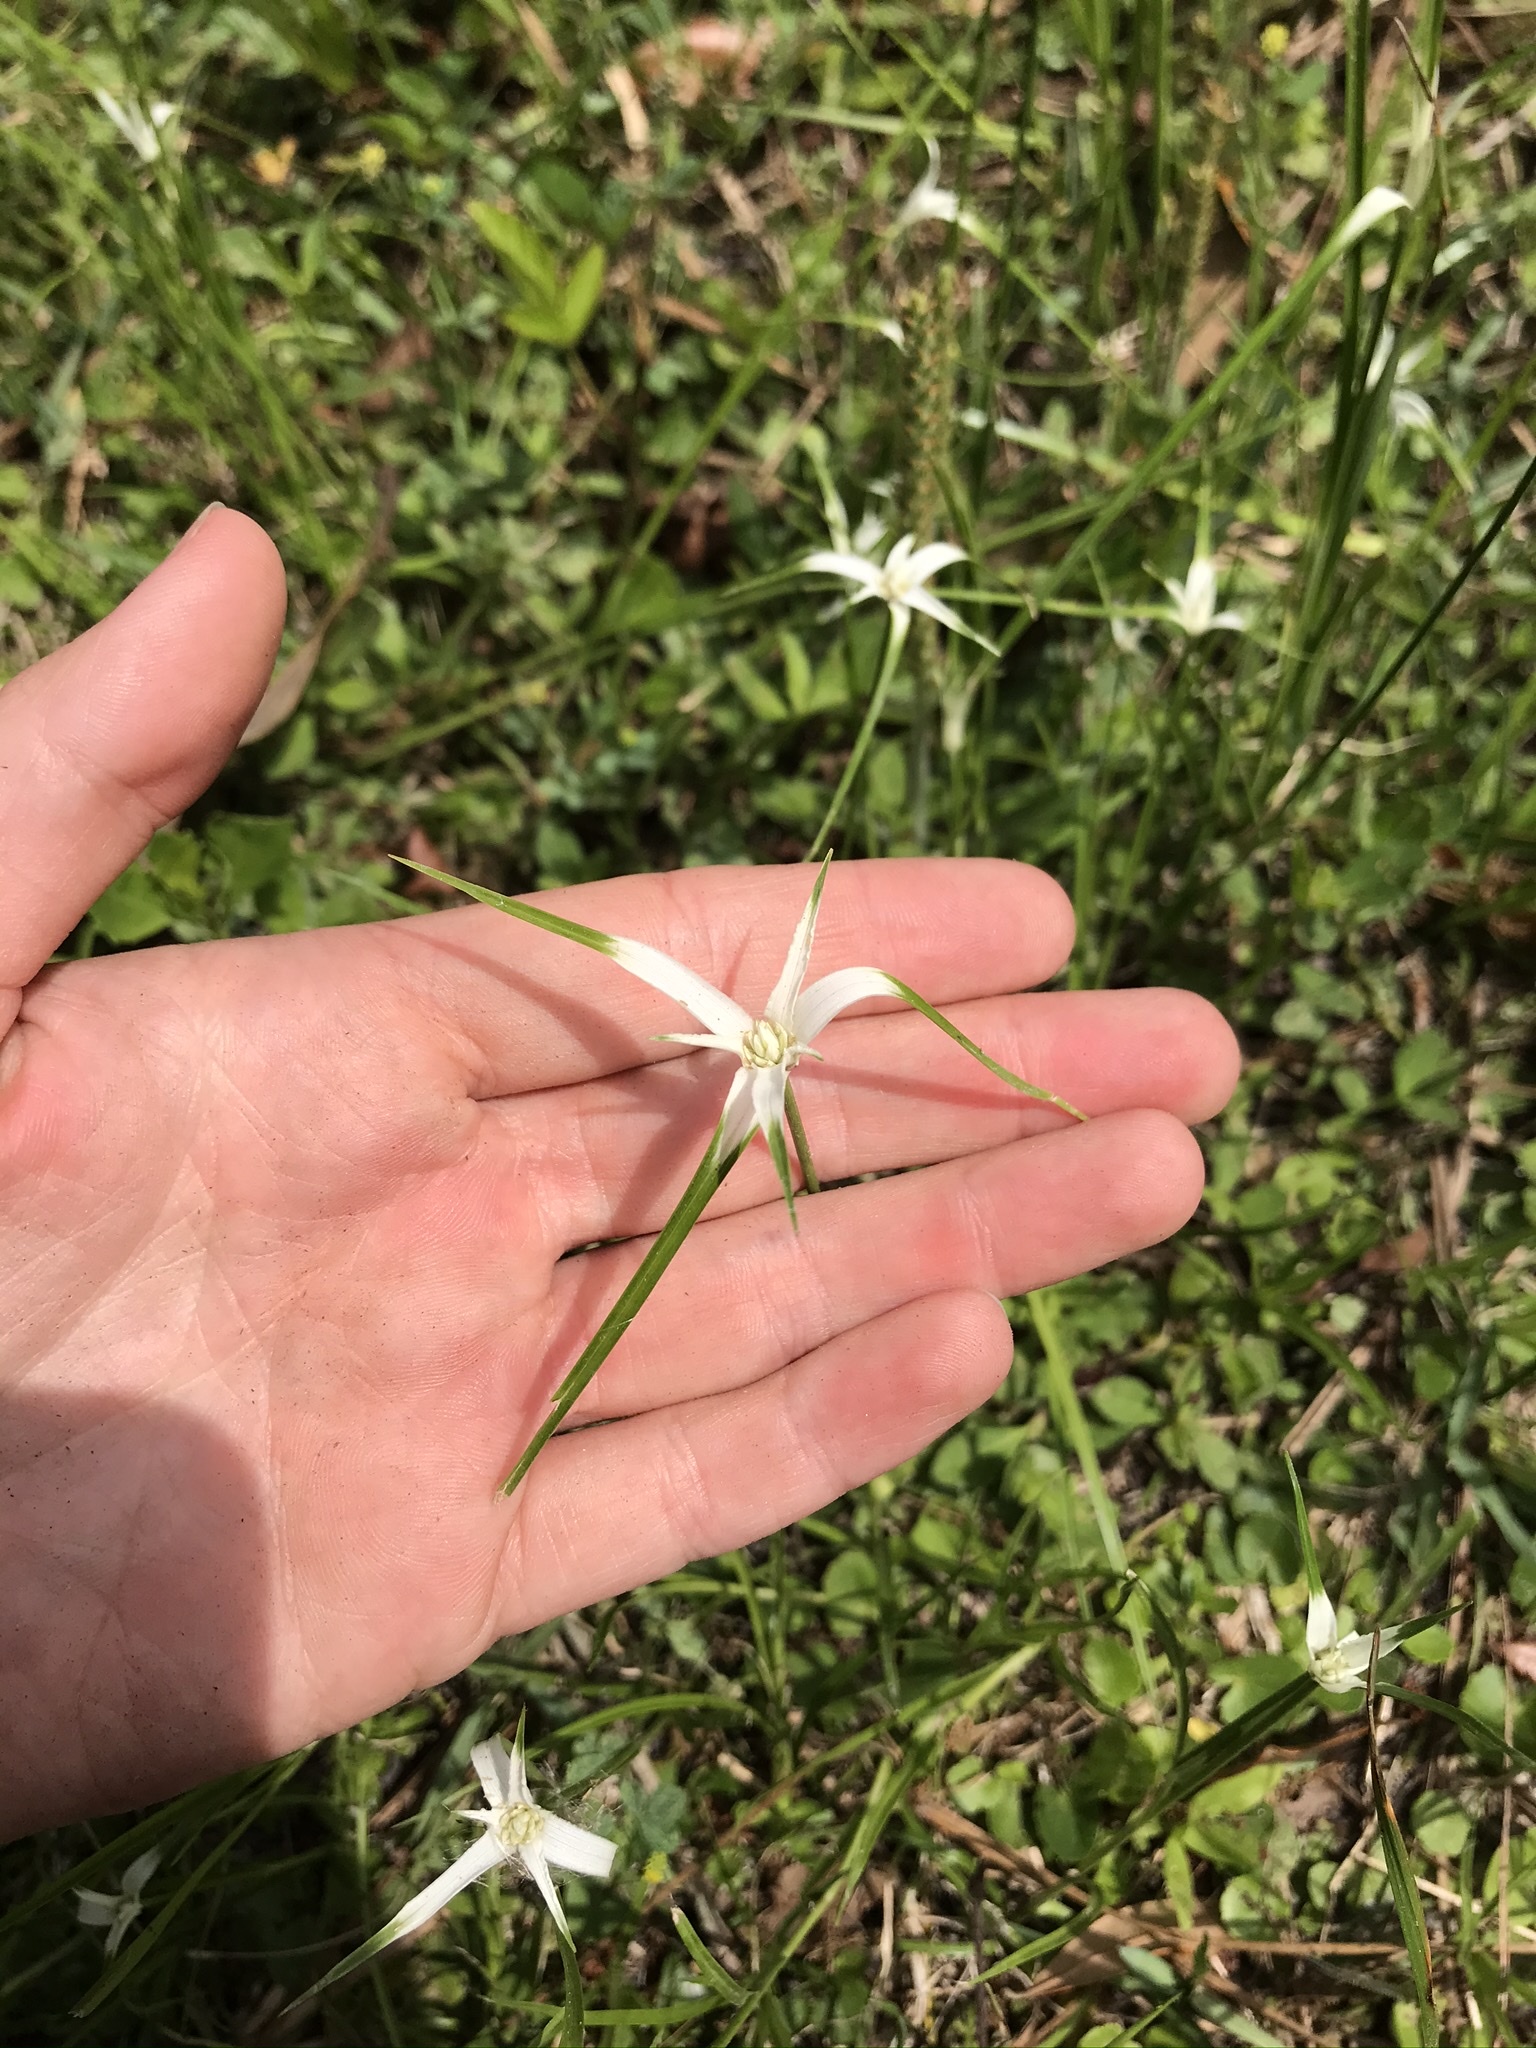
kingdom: Plantae
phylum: Tracheophyta
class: Liliopsida
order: Poales
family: Cyperaceae
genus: Rhynchospora
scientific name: Rhynchospora colorata
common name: Star sedge
